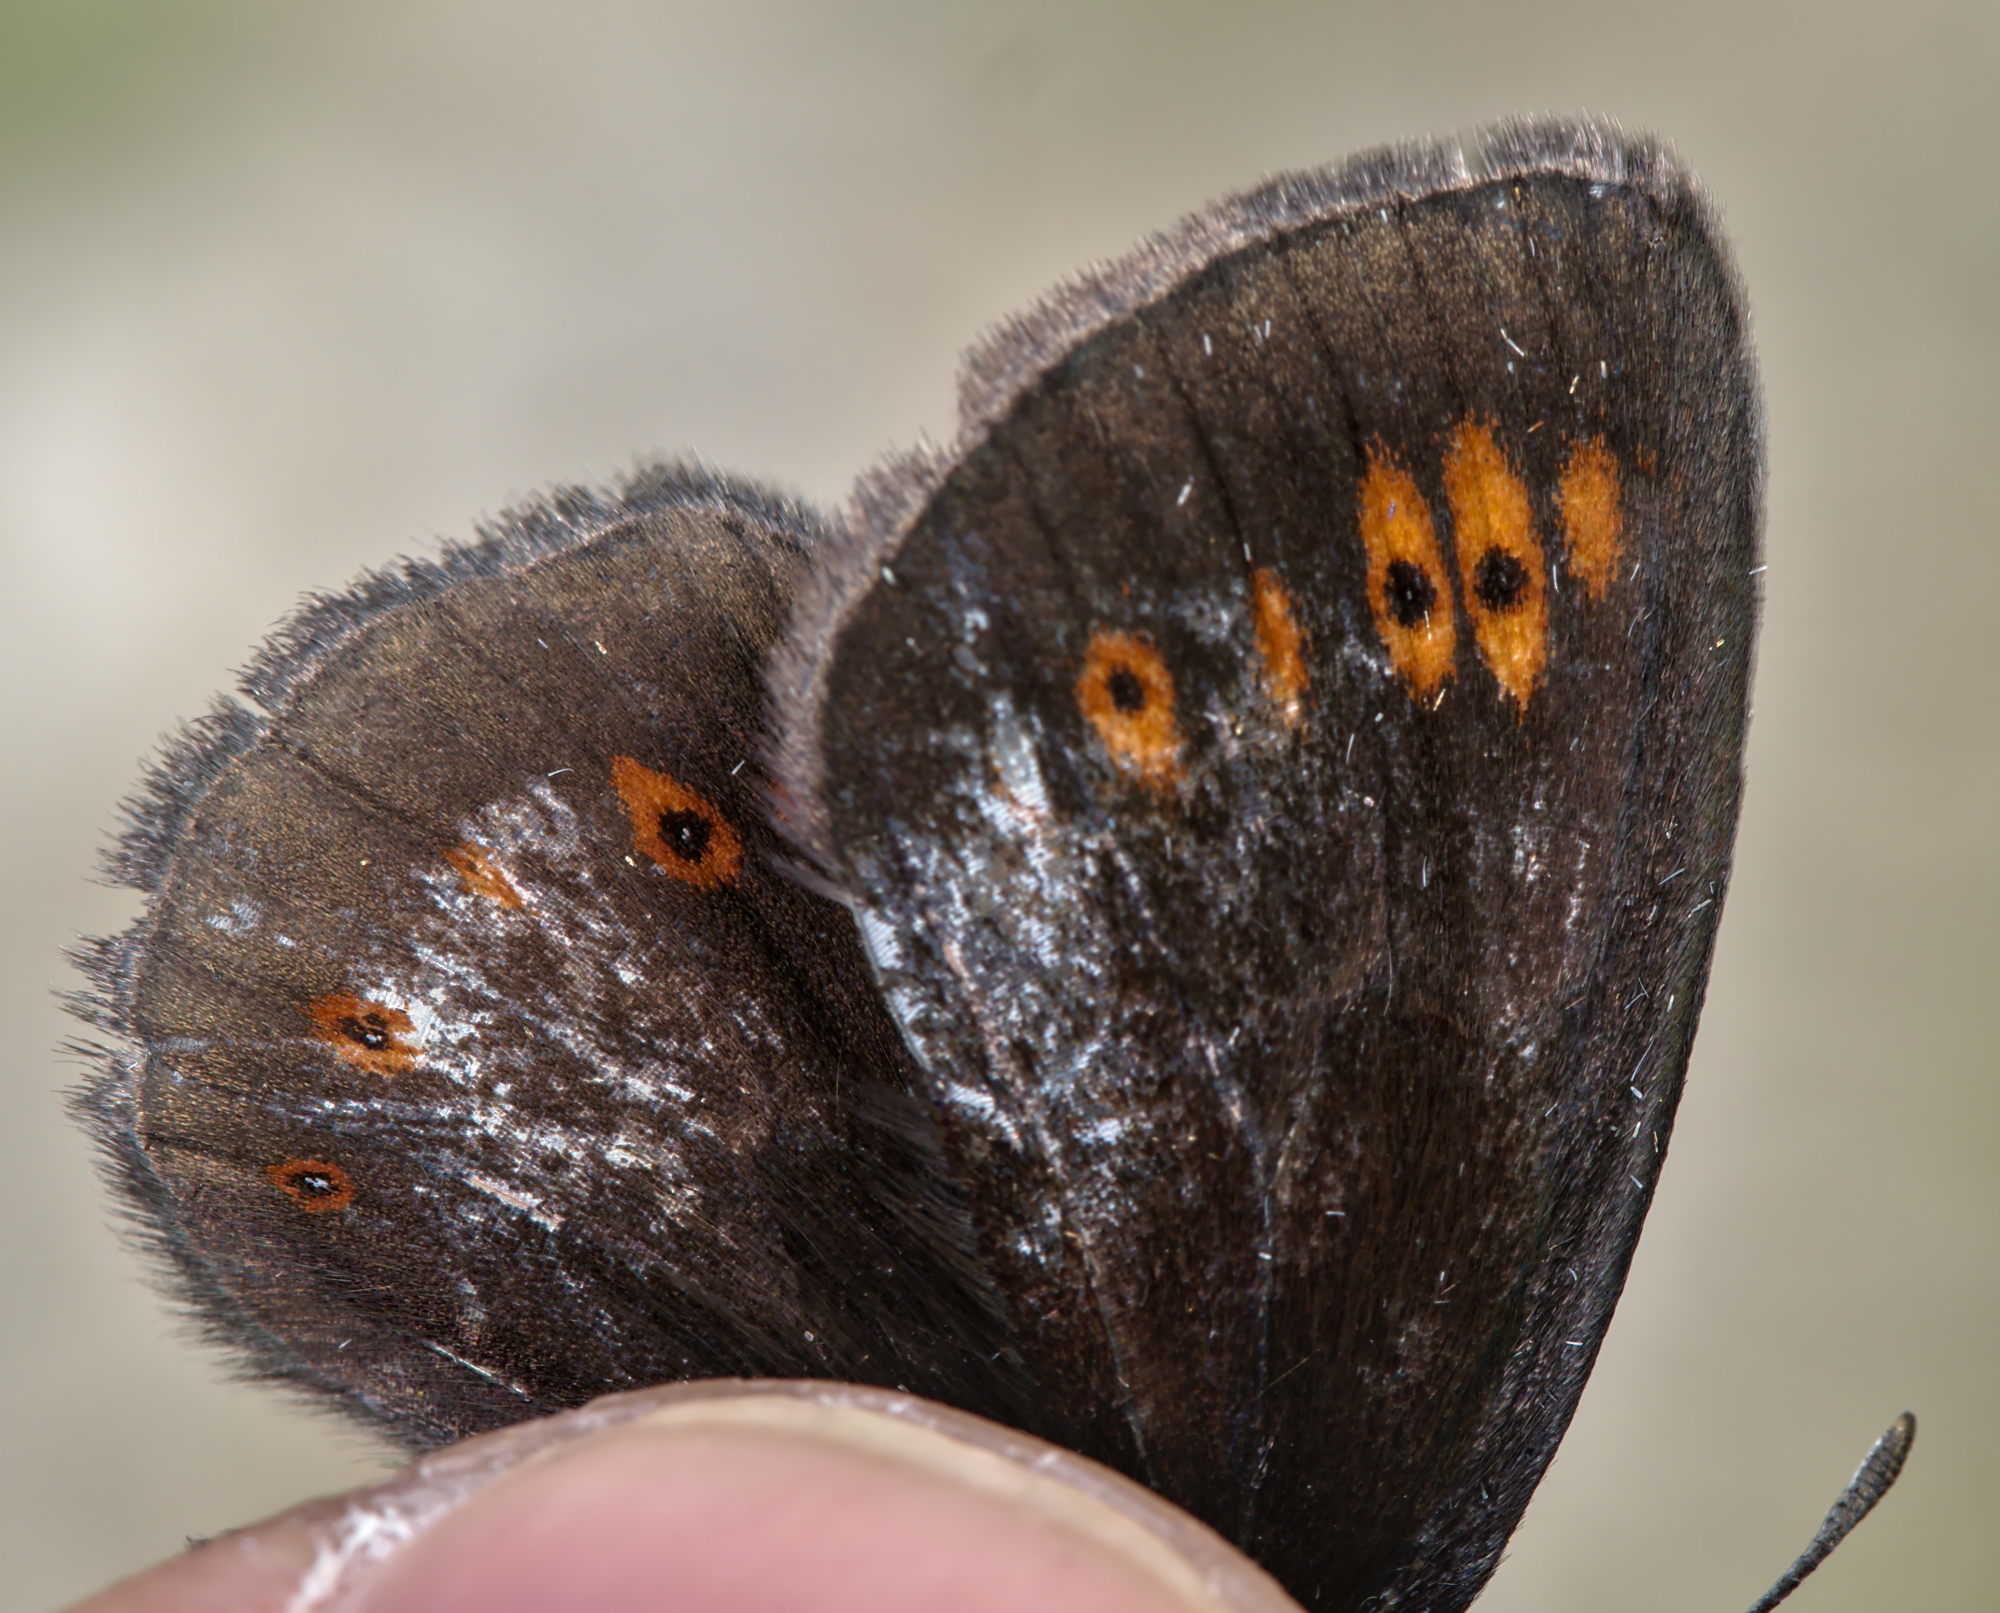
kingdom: Animalia
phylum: Arthropoda
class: Insecta
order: Lepidoptera
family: Nymphalidae
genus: Erebia
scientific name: Erebia alberganus
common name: Almond-eyed ringlet
